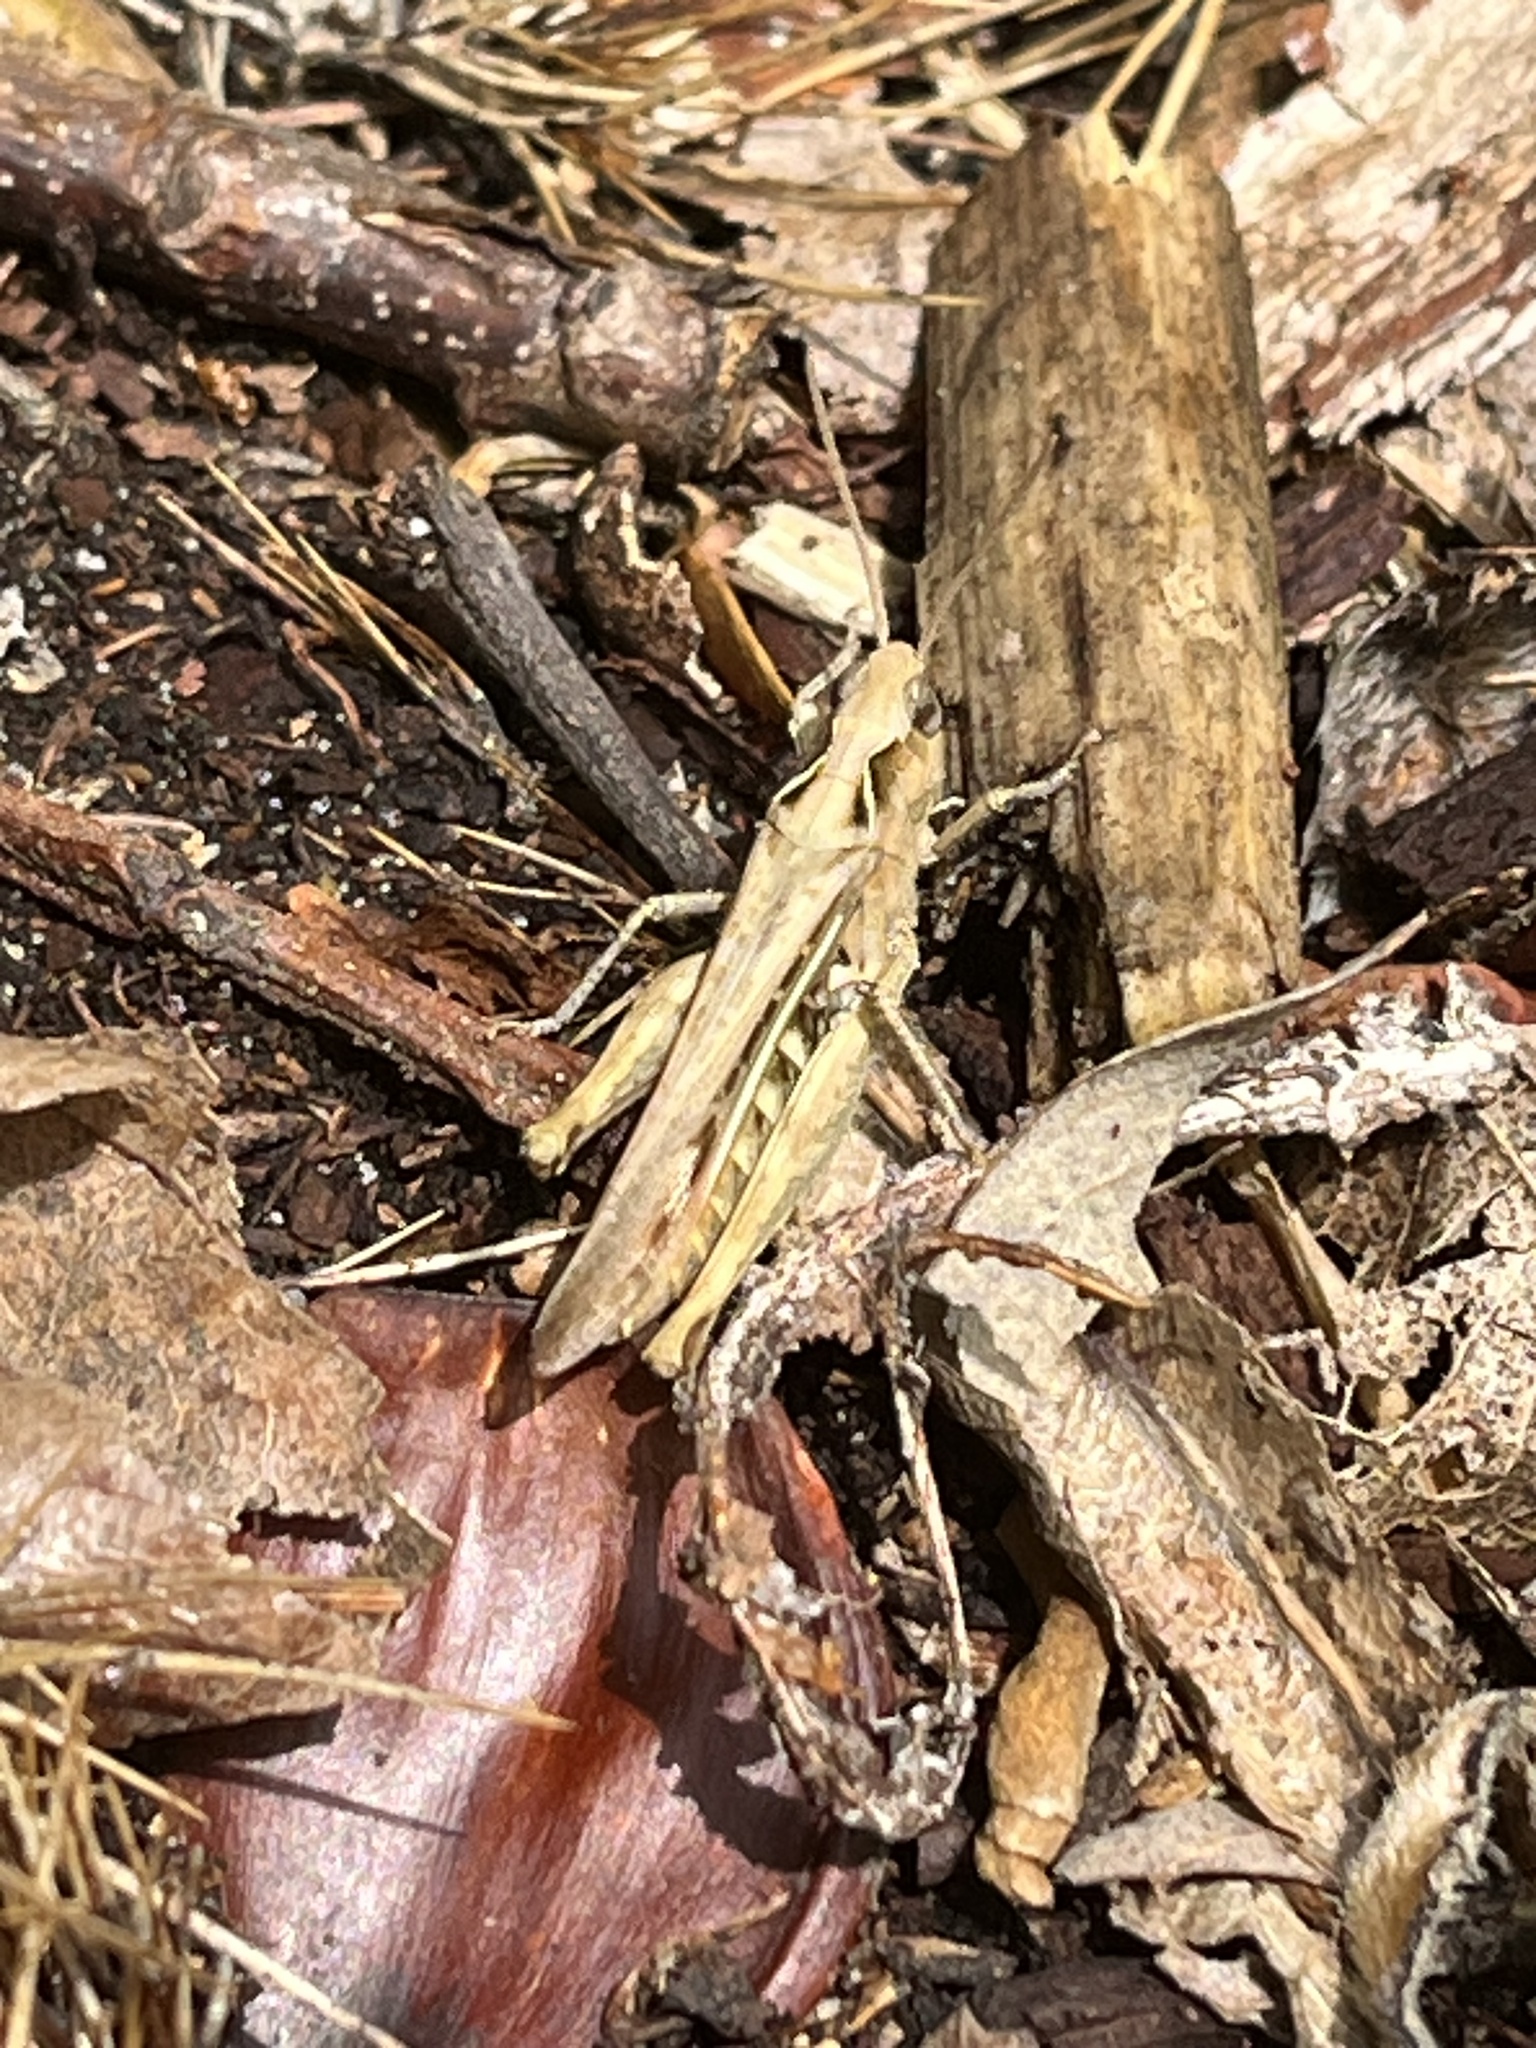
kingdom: Animalia
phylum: Arthropoda
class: Insecta
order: Orthoptera
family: Acrididae
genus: Chorthippus
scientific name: Chorthippus brunneus
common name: Field grasshopper
